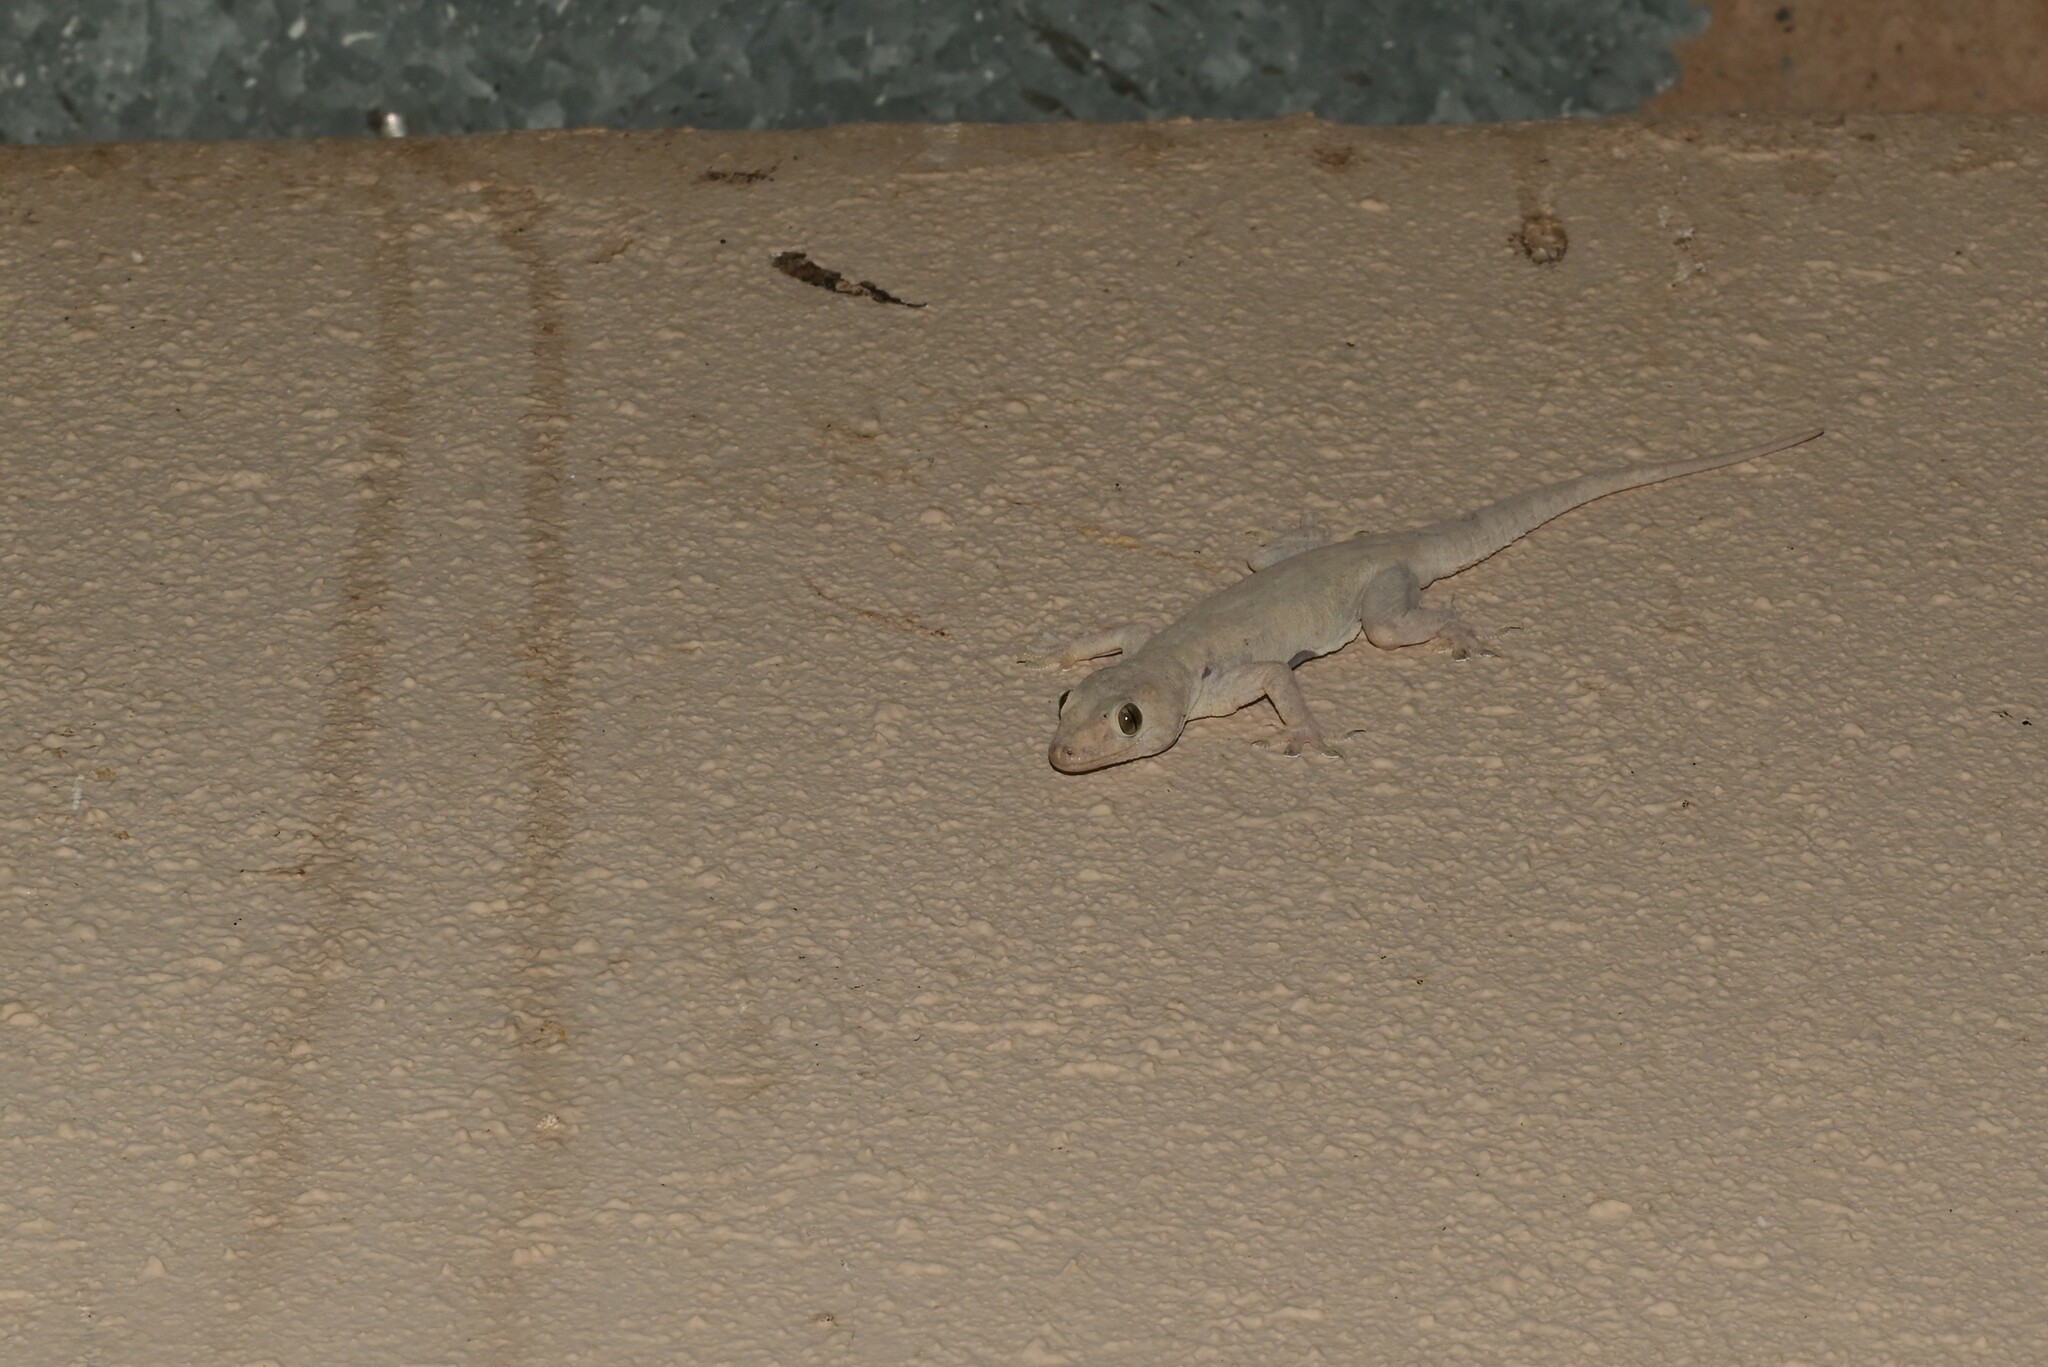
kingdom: Animalia
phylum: Chordata
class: Squamata
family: Gekkonidae
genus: Hemidactylus
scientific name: Hemidactylus flaviviridis
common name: Northern house gecko
